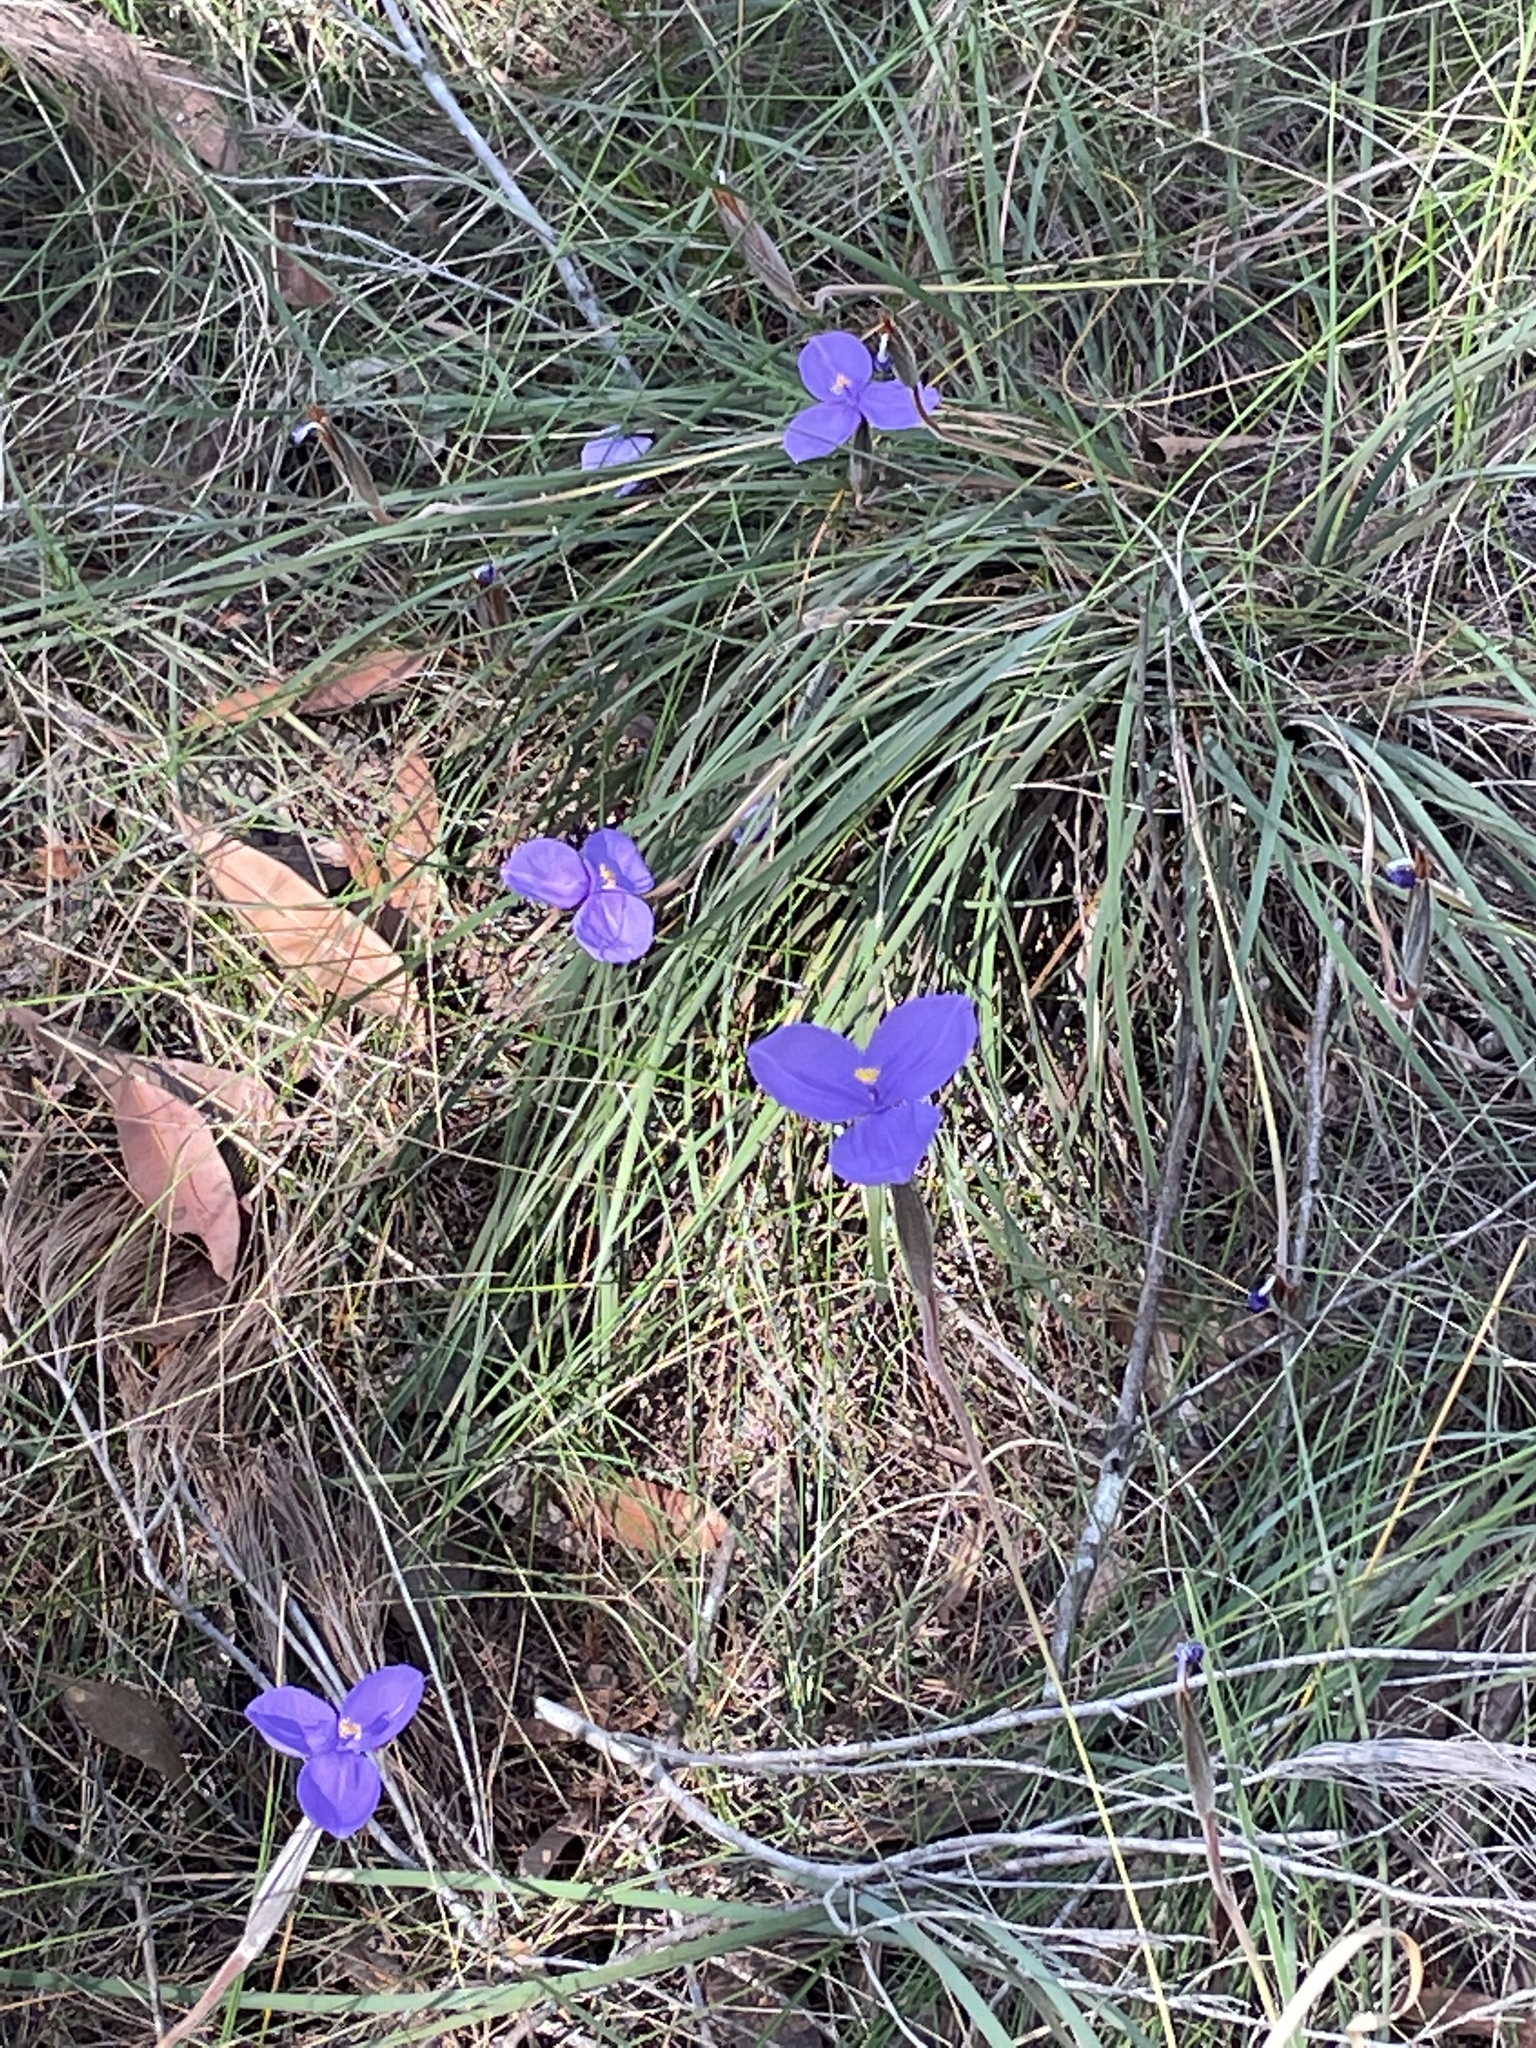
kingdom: Plantae
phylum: Tracheophyta
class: Liliopsida
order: Asparagales
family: Iridaceae
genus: Patersonia
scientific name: Patersonia sericea
